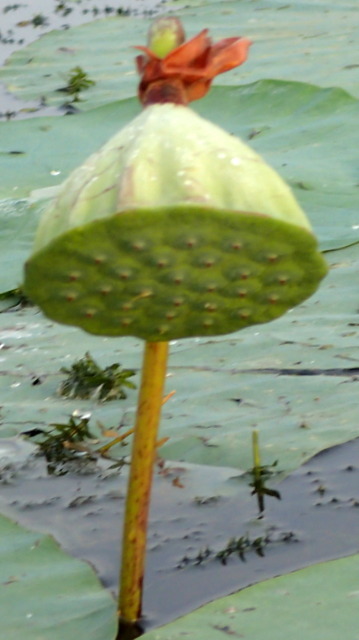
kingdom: Plantae
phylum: Tracheophyta
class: Magnoliopsida
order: Proteales
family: Nelumbonaceae
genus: Nelumbo
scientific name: Nelumbo lutea
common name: American lotus
